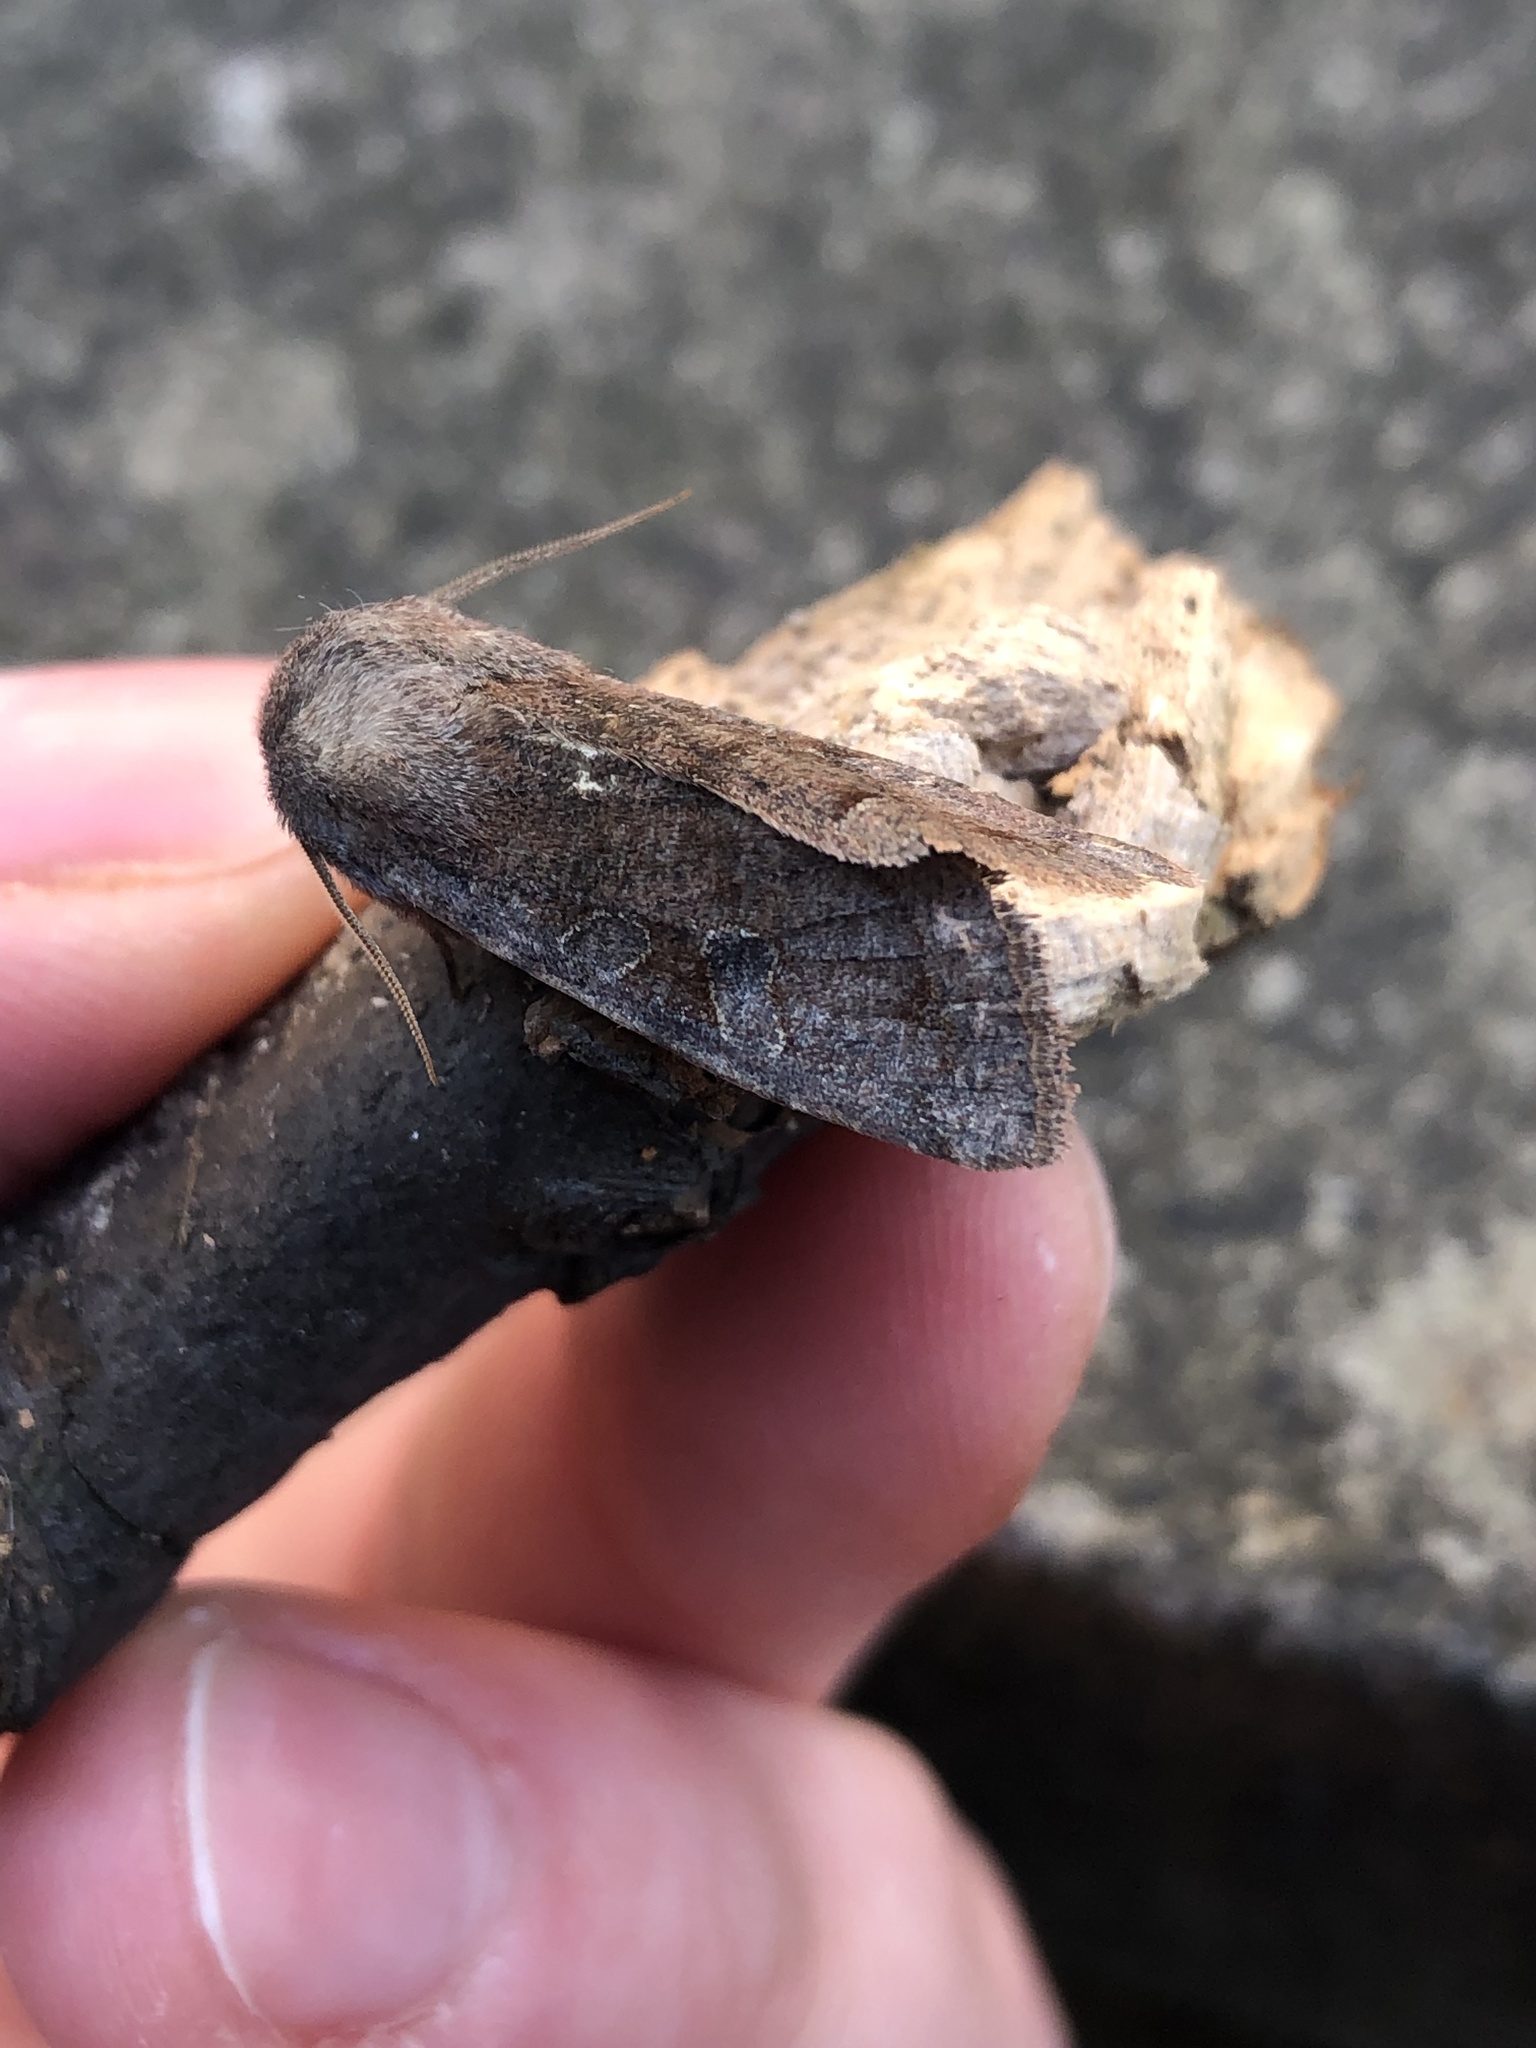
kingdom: Animalia
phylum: Arthropoda
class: Insecta
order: Lepidoptera
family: Noctuidae
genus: Orthosia
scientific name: Orthosia incerta
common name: Clouded drab
